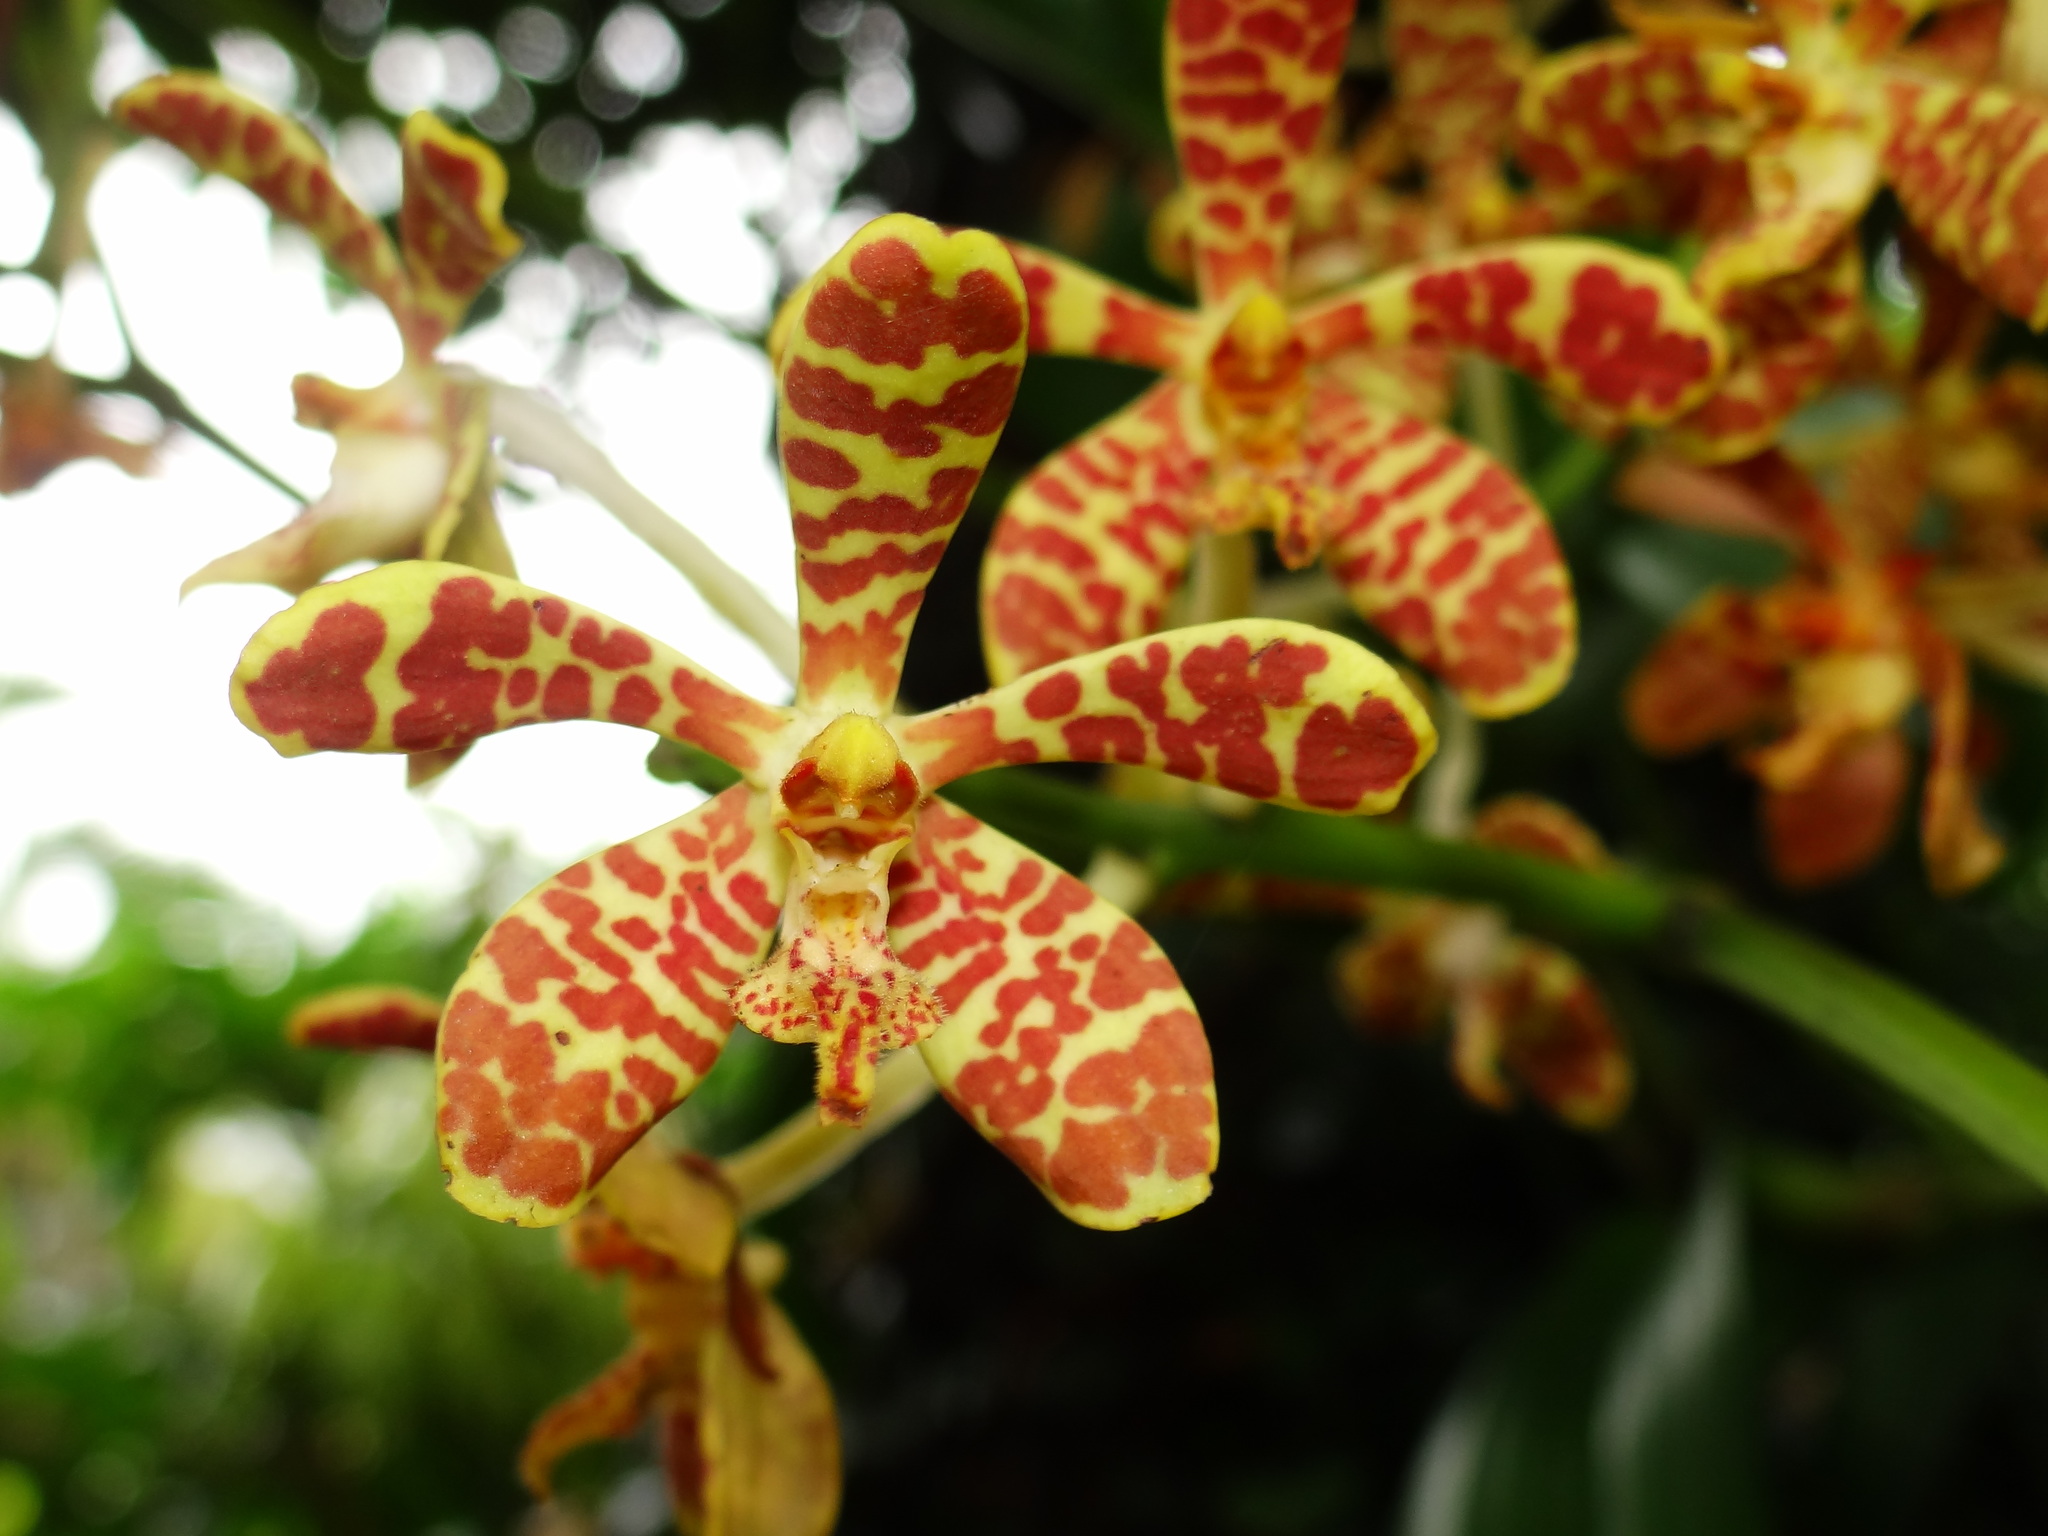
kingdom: Plantae
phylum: Tracheophyta
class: Liliopsida
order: Asparagales
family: Orchidaceae
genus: Trichoglottis
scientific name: Trichoglottis luchuensis
